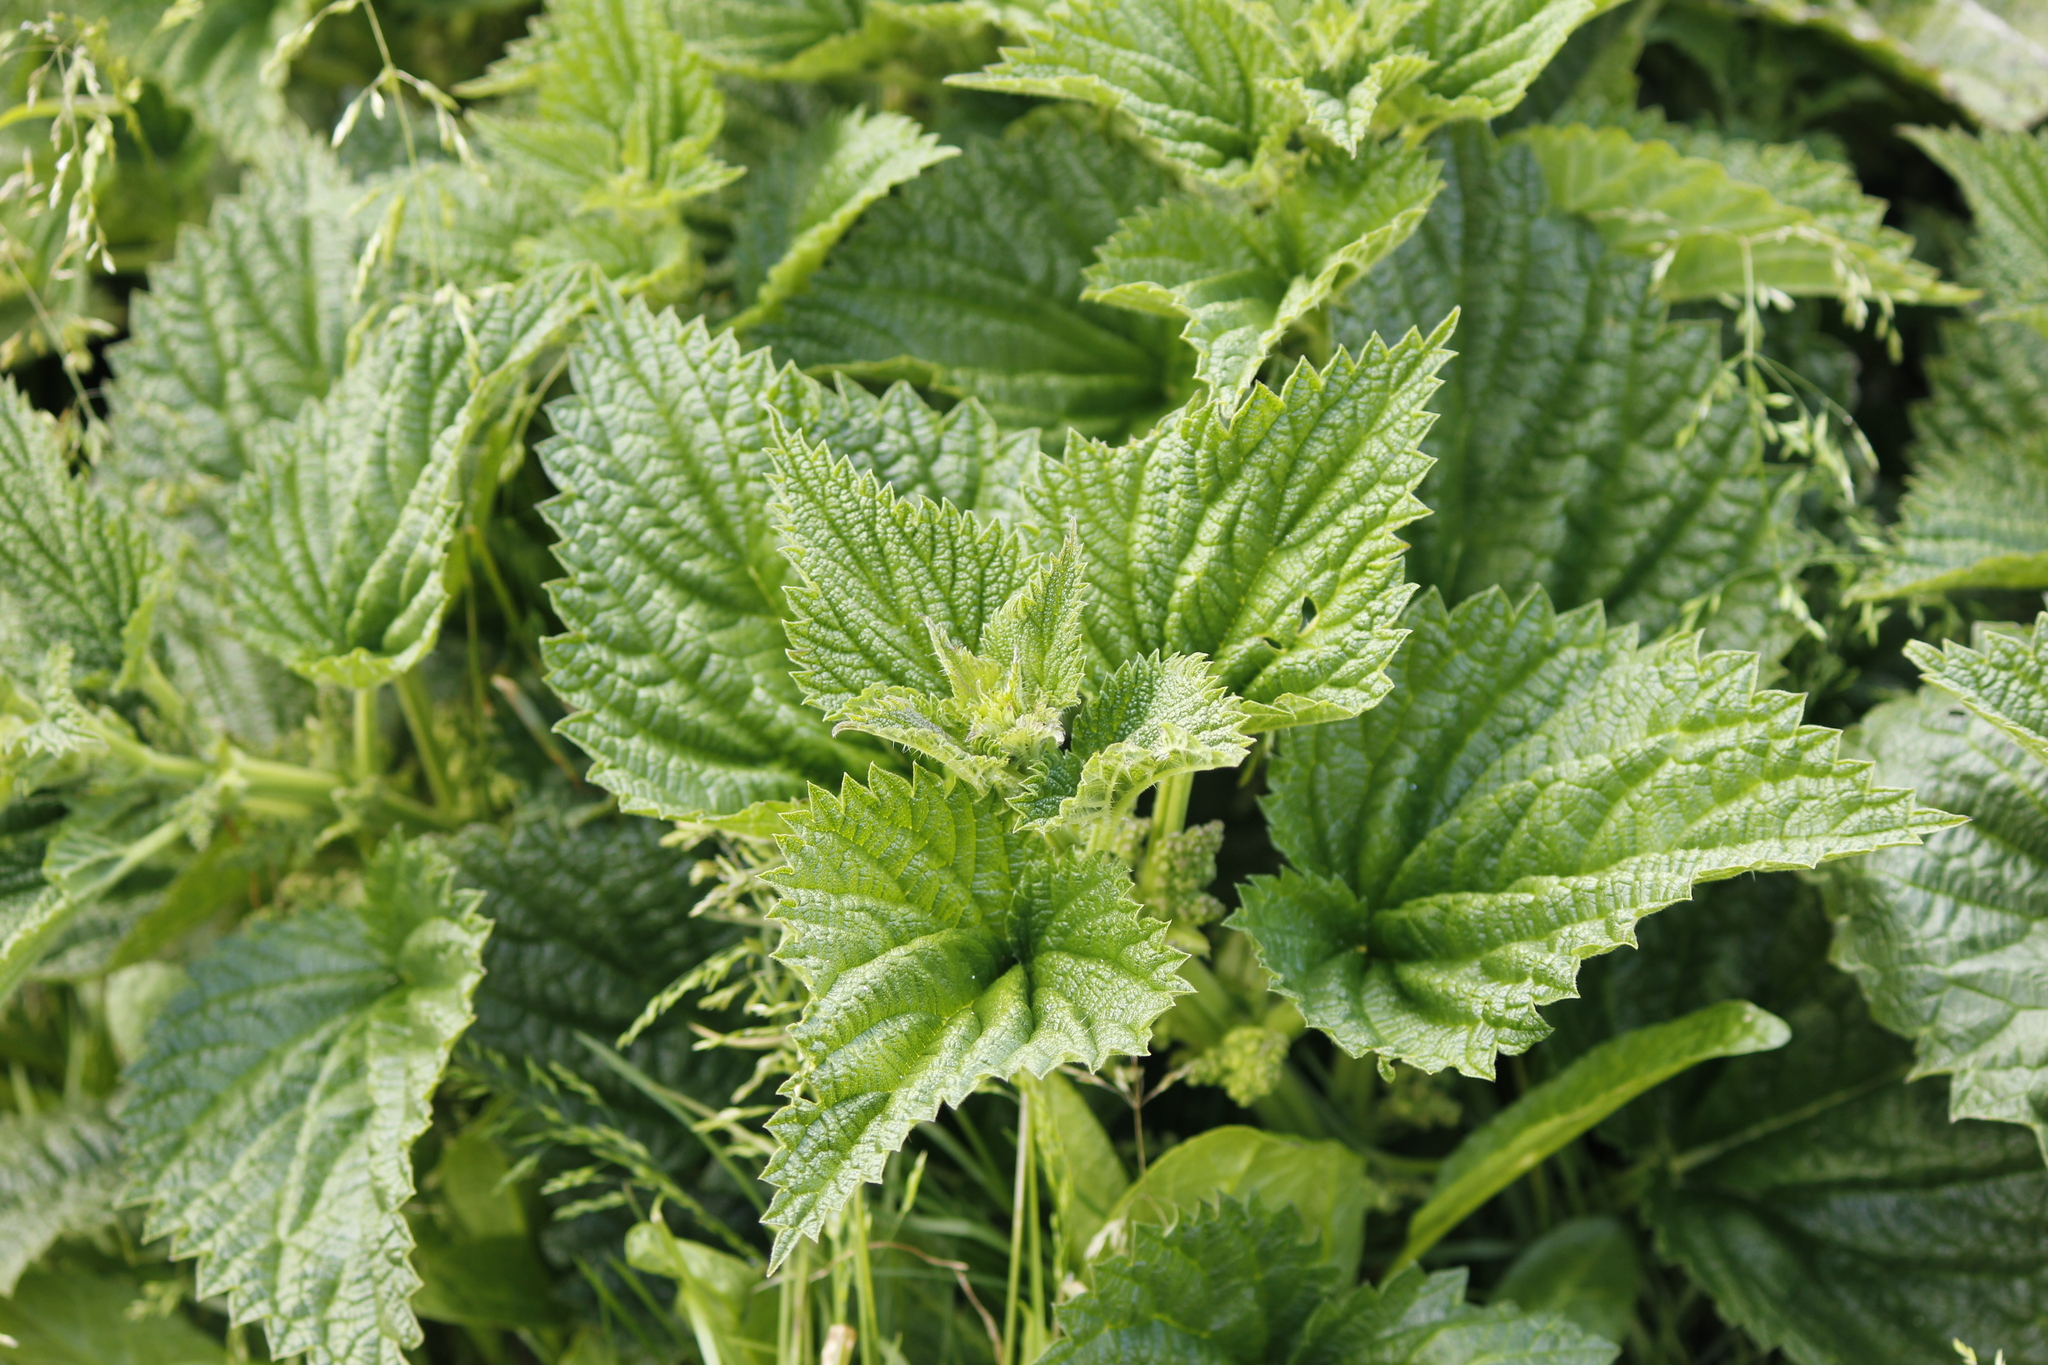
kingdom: Plantae
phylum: Tracheophyta
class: Magnoliopsida
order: Rosales
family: Urticaceae
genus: Urtica
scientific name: Urtica australis
